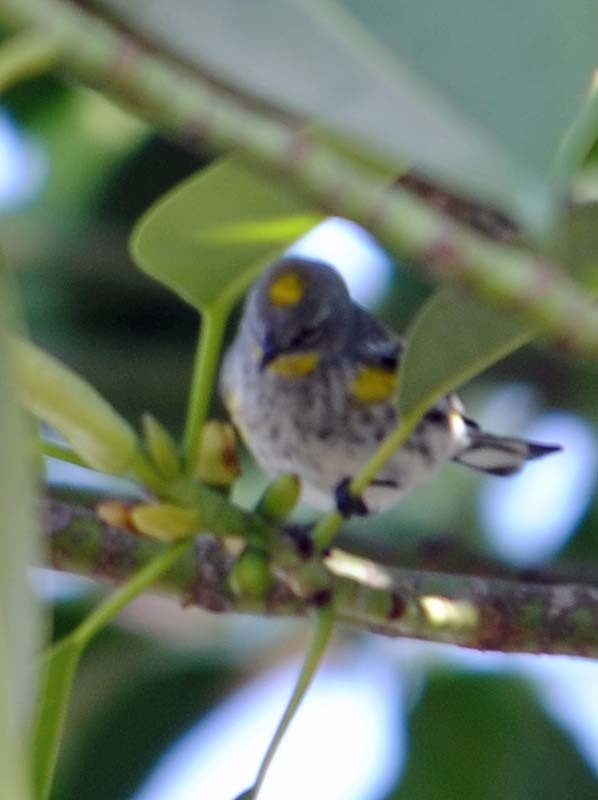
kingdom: Animalia
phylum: Chordata
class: Aves
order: Passeriformes
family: Parulidae
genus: Setophaga
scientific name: Setophaga auduboni
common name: Audubon's warbler
